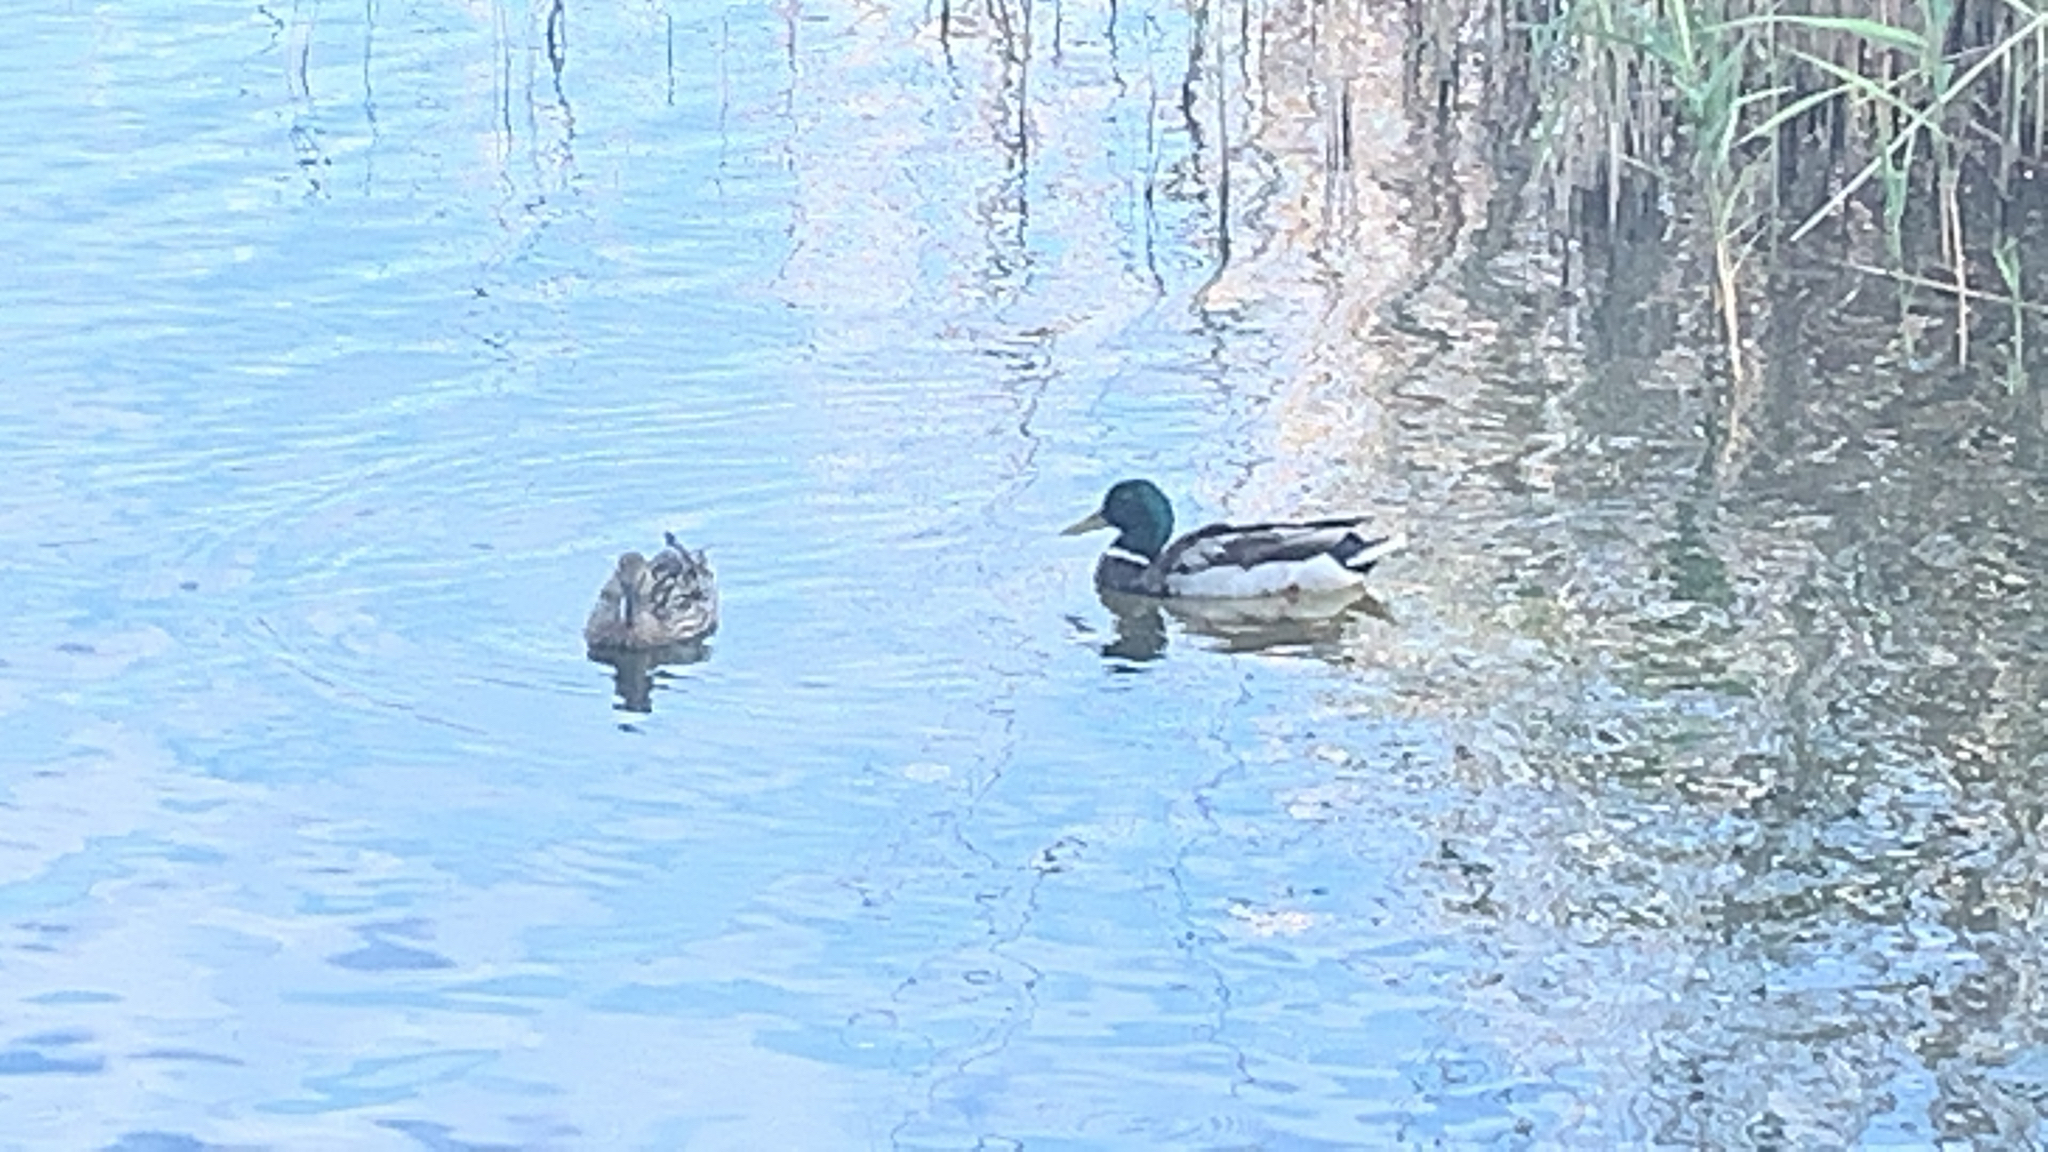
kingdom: Animalia
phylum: Chordata
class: Aves
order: Anseriformes
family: Anatidae
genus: Anas
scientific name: Anas platyrhynchos
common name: Mallard
